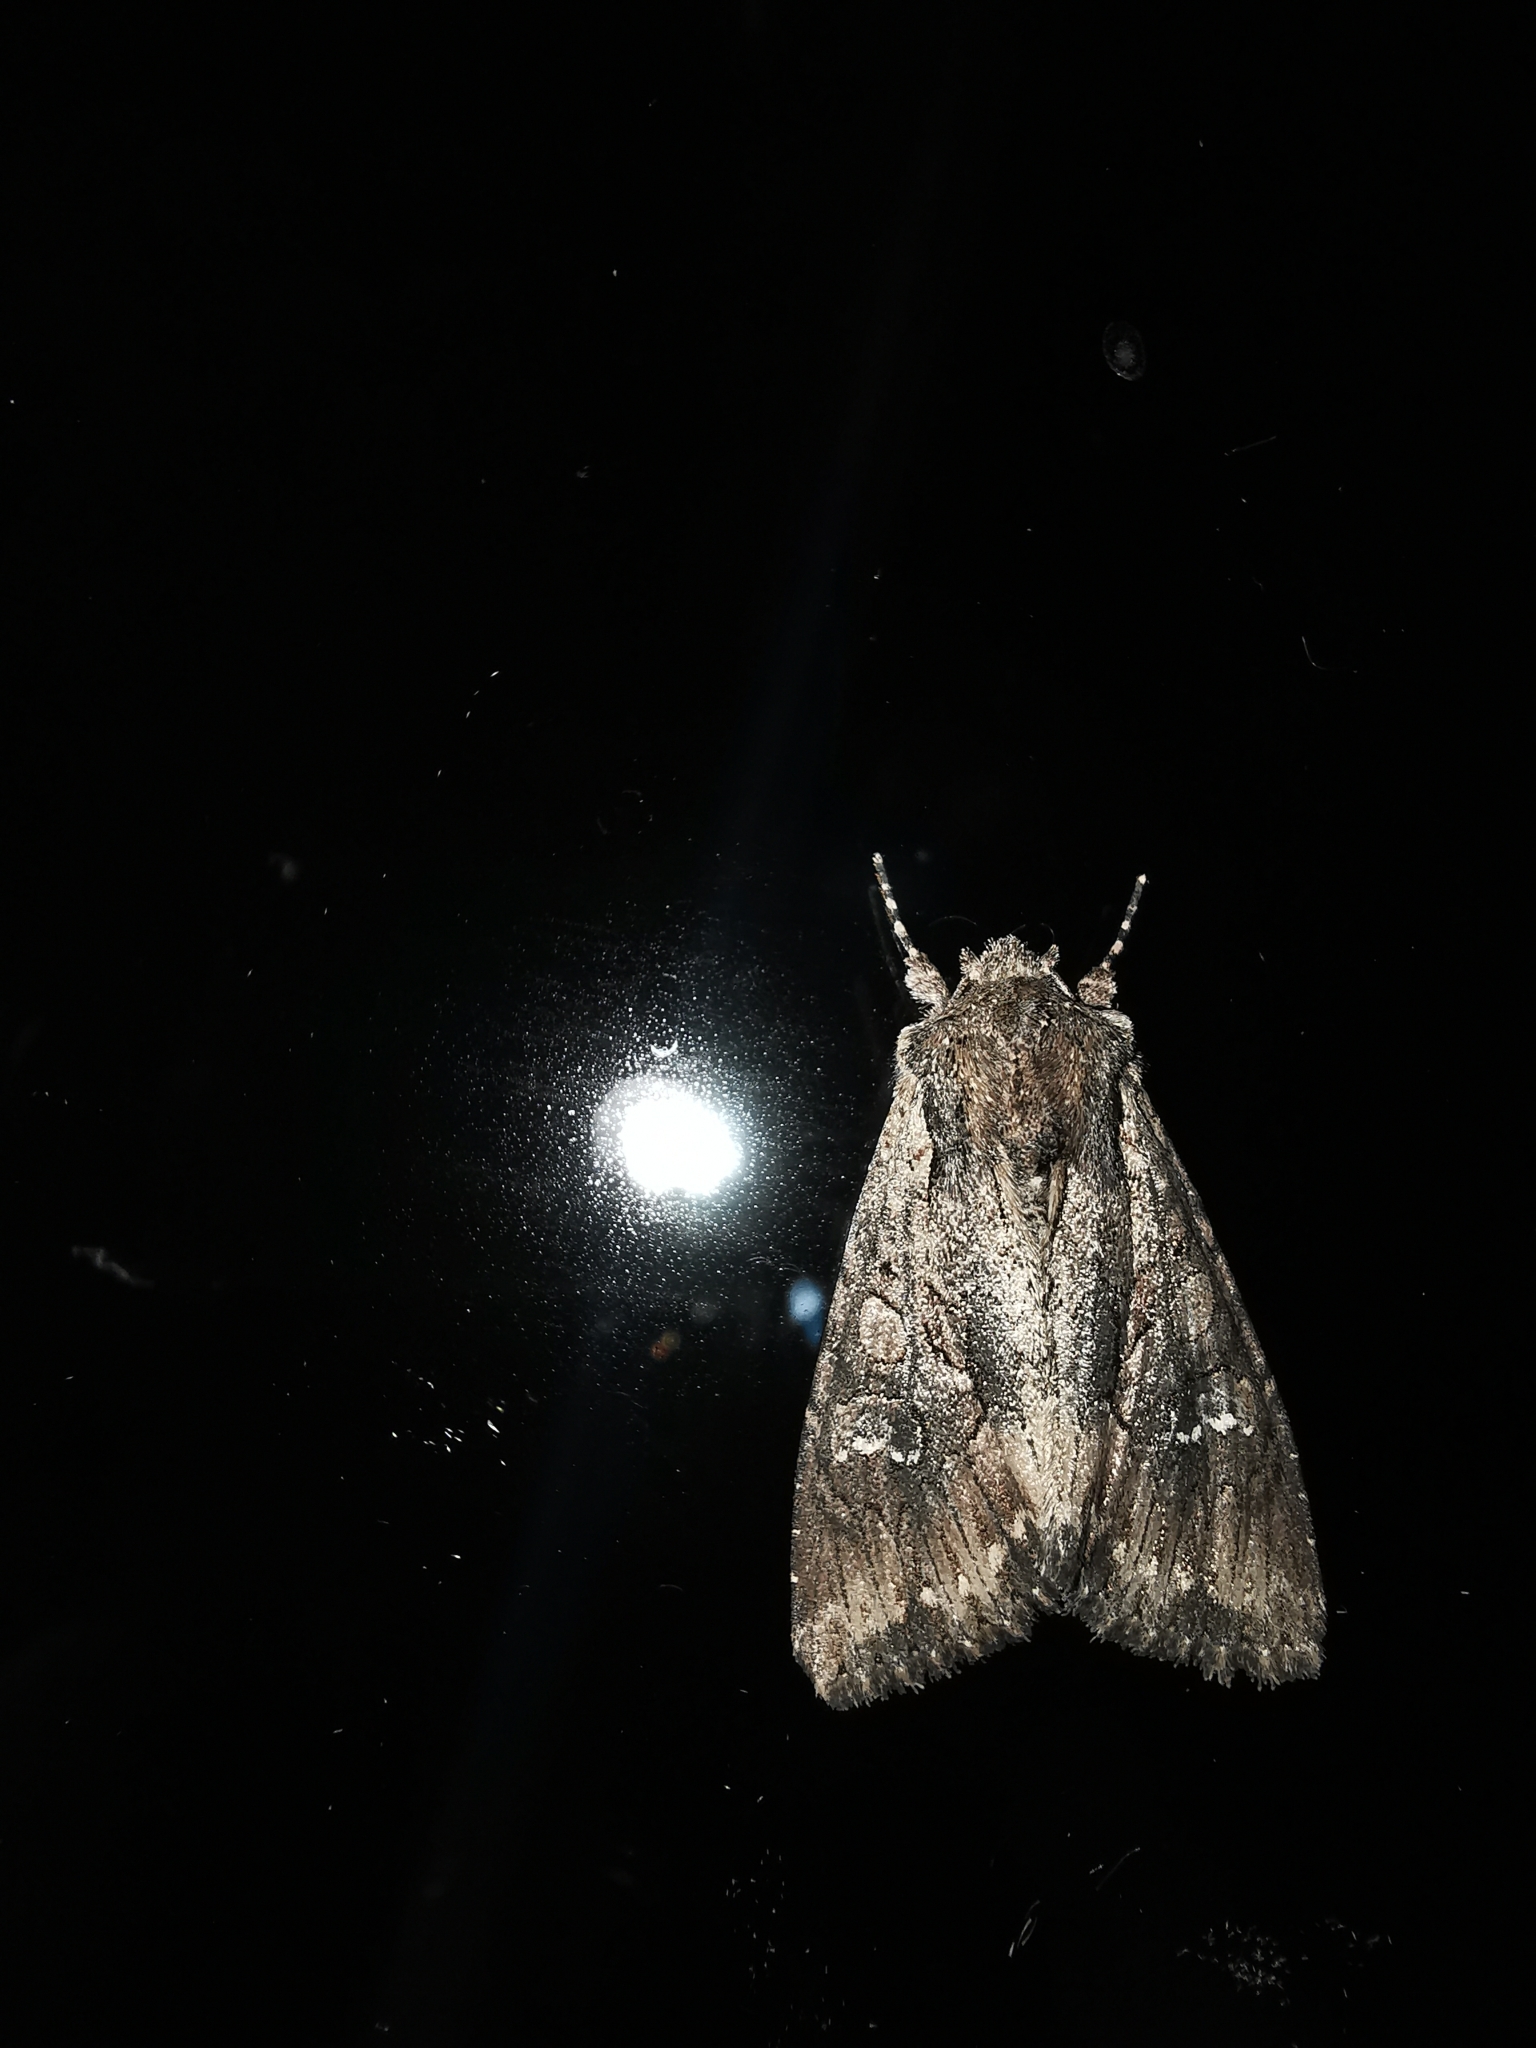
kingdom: Animalia
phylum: Arthropoda
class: Insecta
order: Lepidoptera
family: Noctuidae
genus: Mniotype
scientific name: Mniotype solieri
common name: Bedrule brocade
